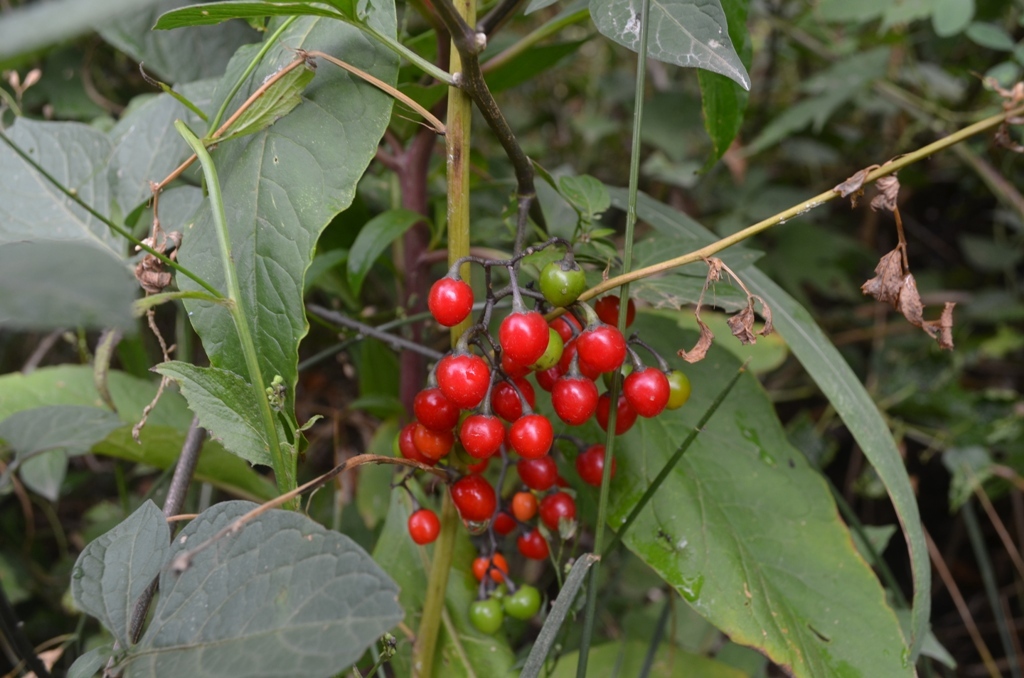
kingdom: Plantae
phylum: Tracheophyta
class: Magnoliopsida
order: Solanales
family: Solanaceae
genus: Solanum
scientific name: Solanum dulcamara
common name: Climbing nightshade
